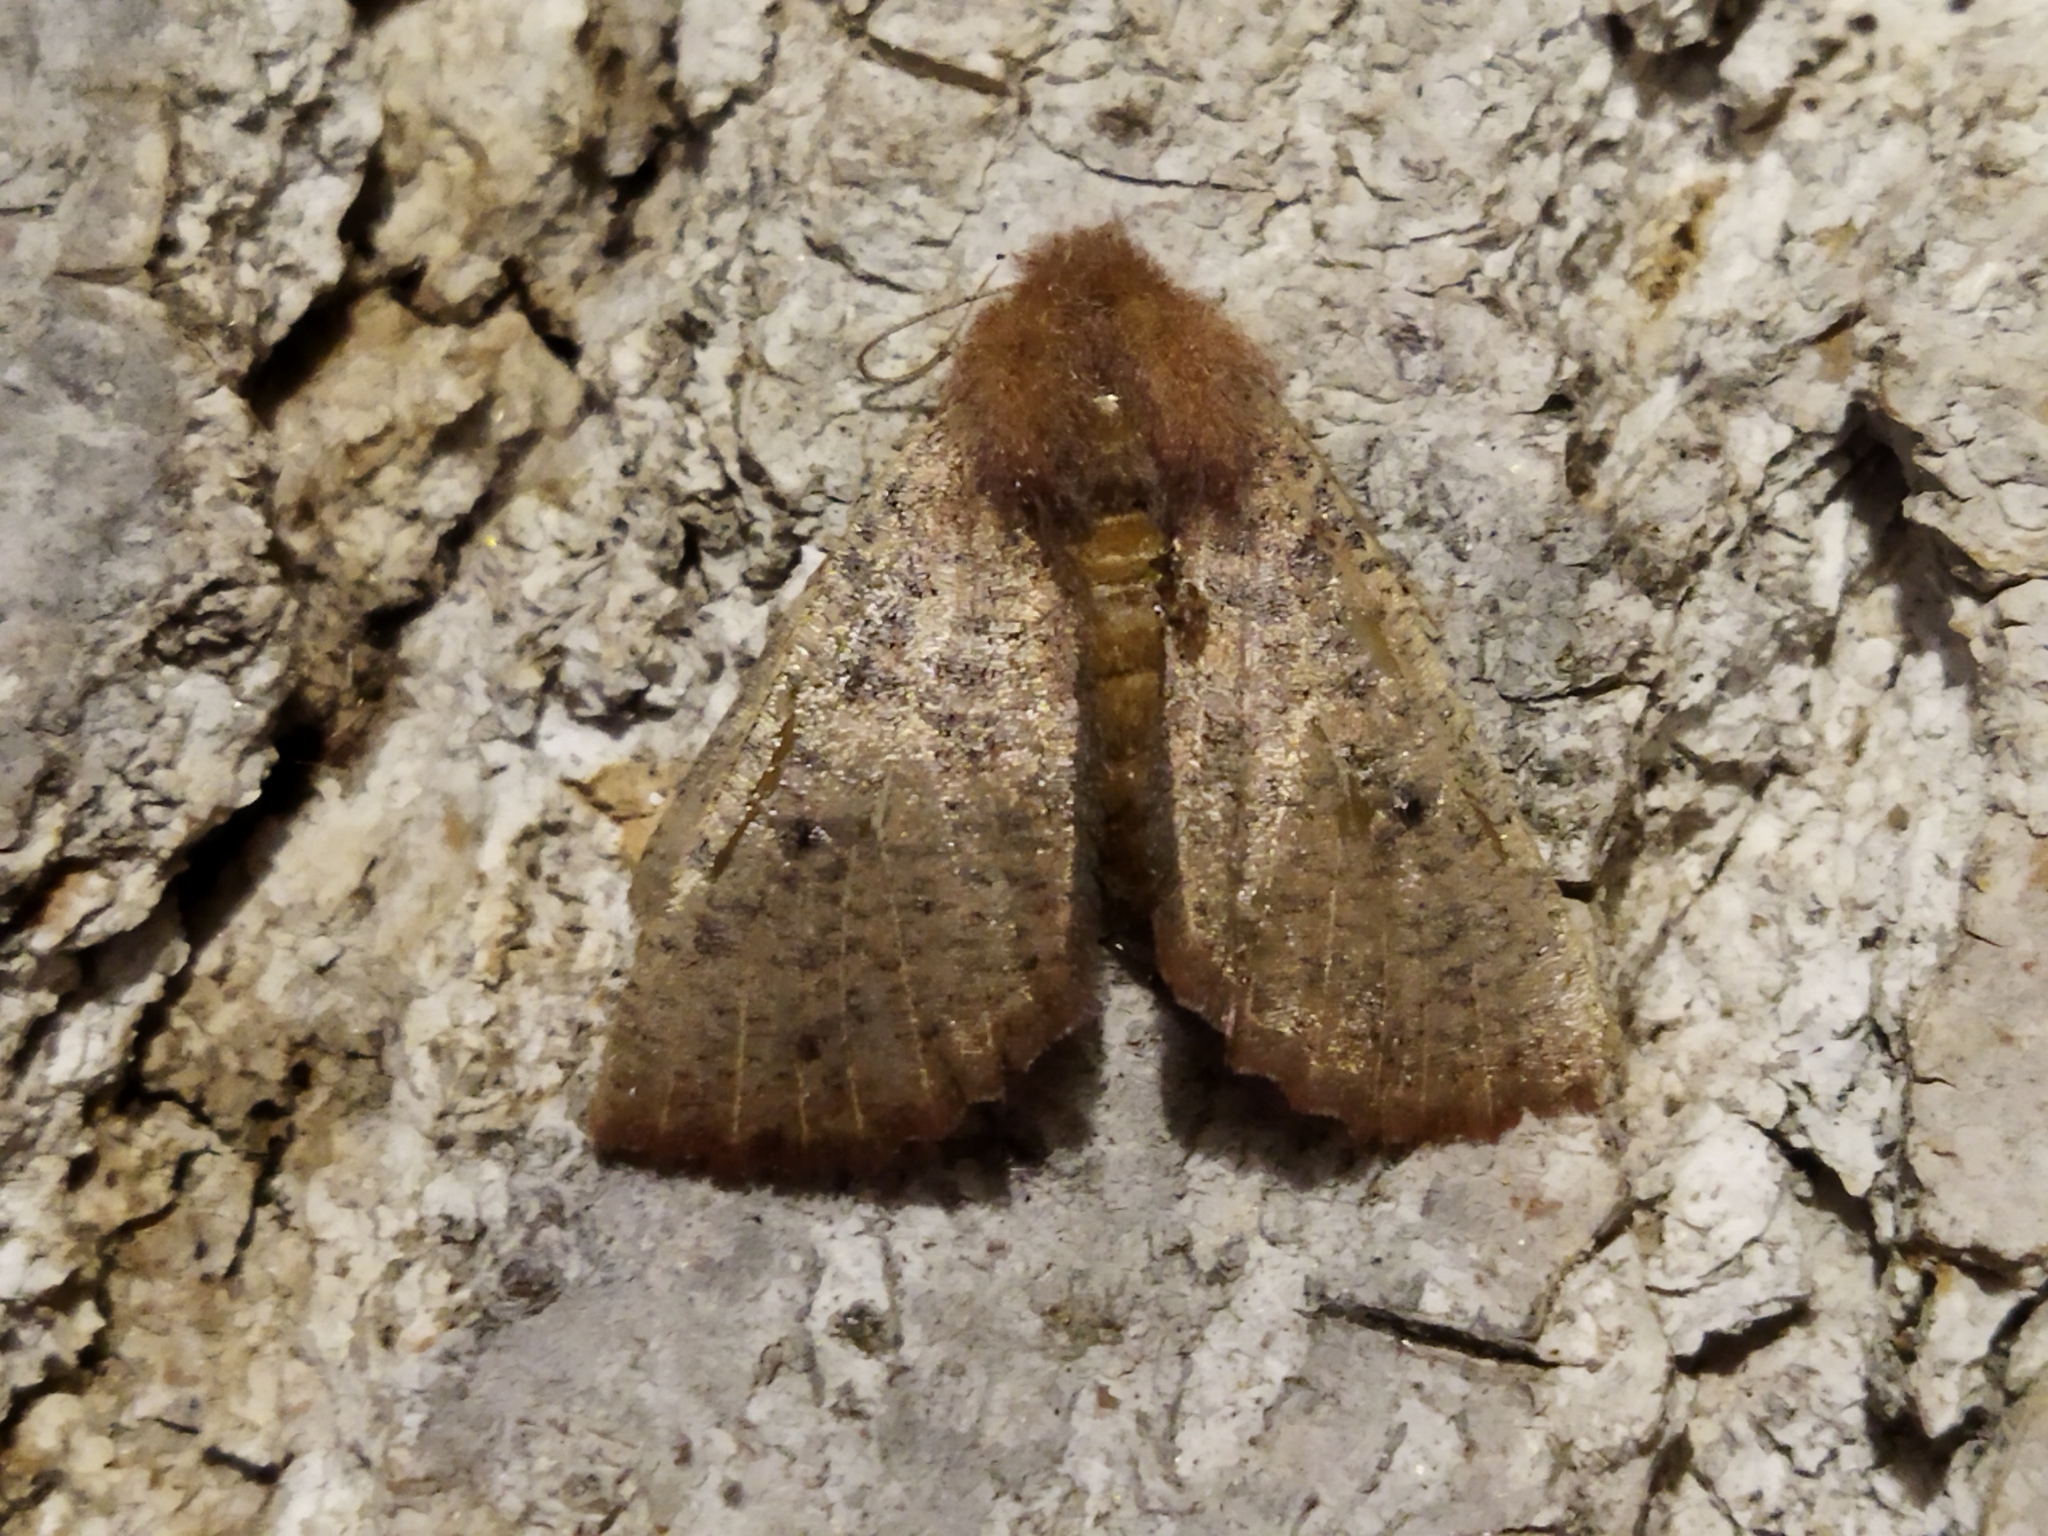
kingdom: Animalia
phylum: Arthropoda
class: Insecta
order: Lepidoptera
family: Geometridae
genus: Dasycorsa
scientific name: Dasycorsa modesta
